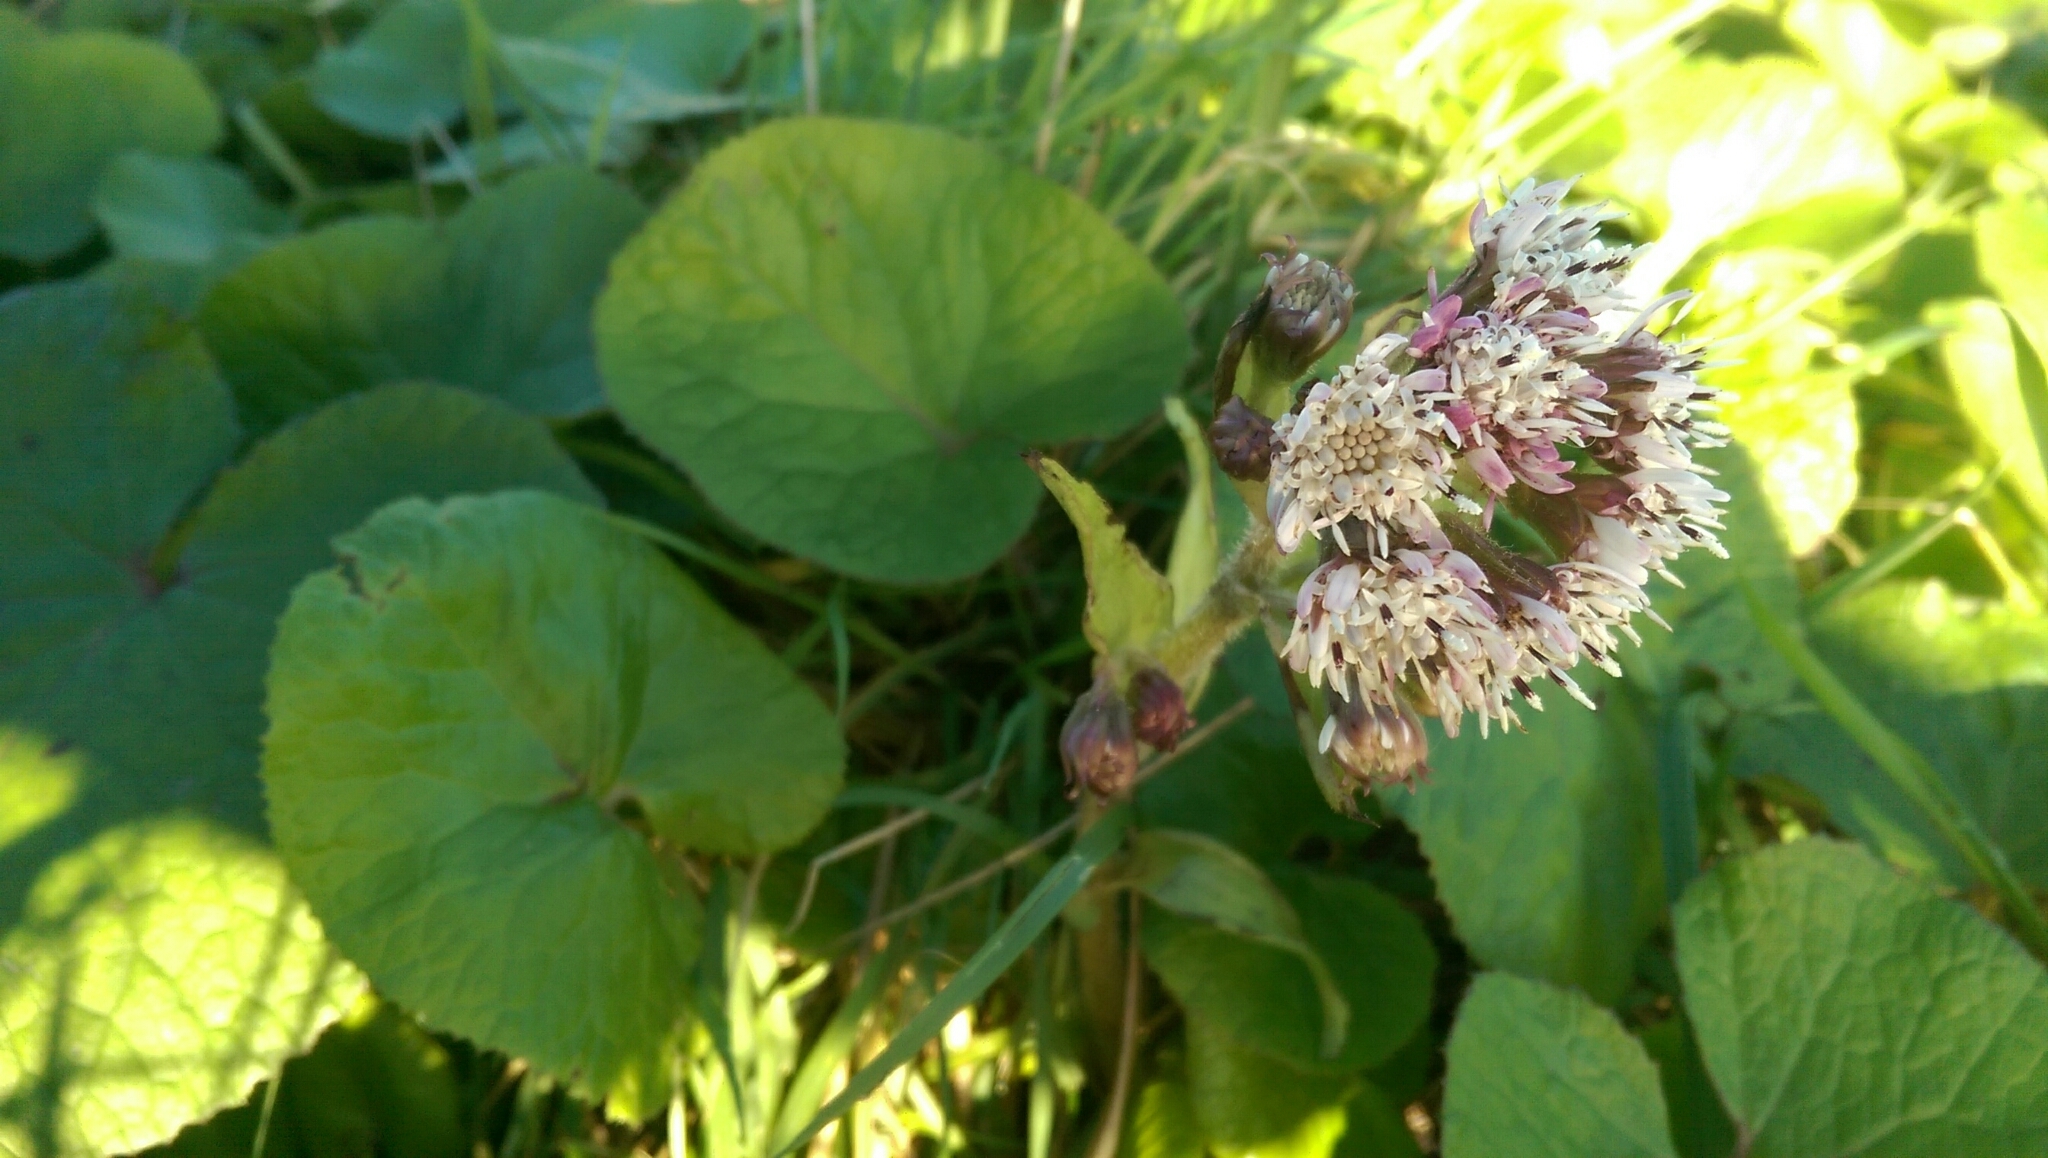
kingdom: Plantae
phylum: Tracheophyta
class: Magnoliopsida
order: Asterales
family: Asteraceae
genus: Petasites
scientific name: Petasites pyrenaicus
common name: Winter heliotrope
